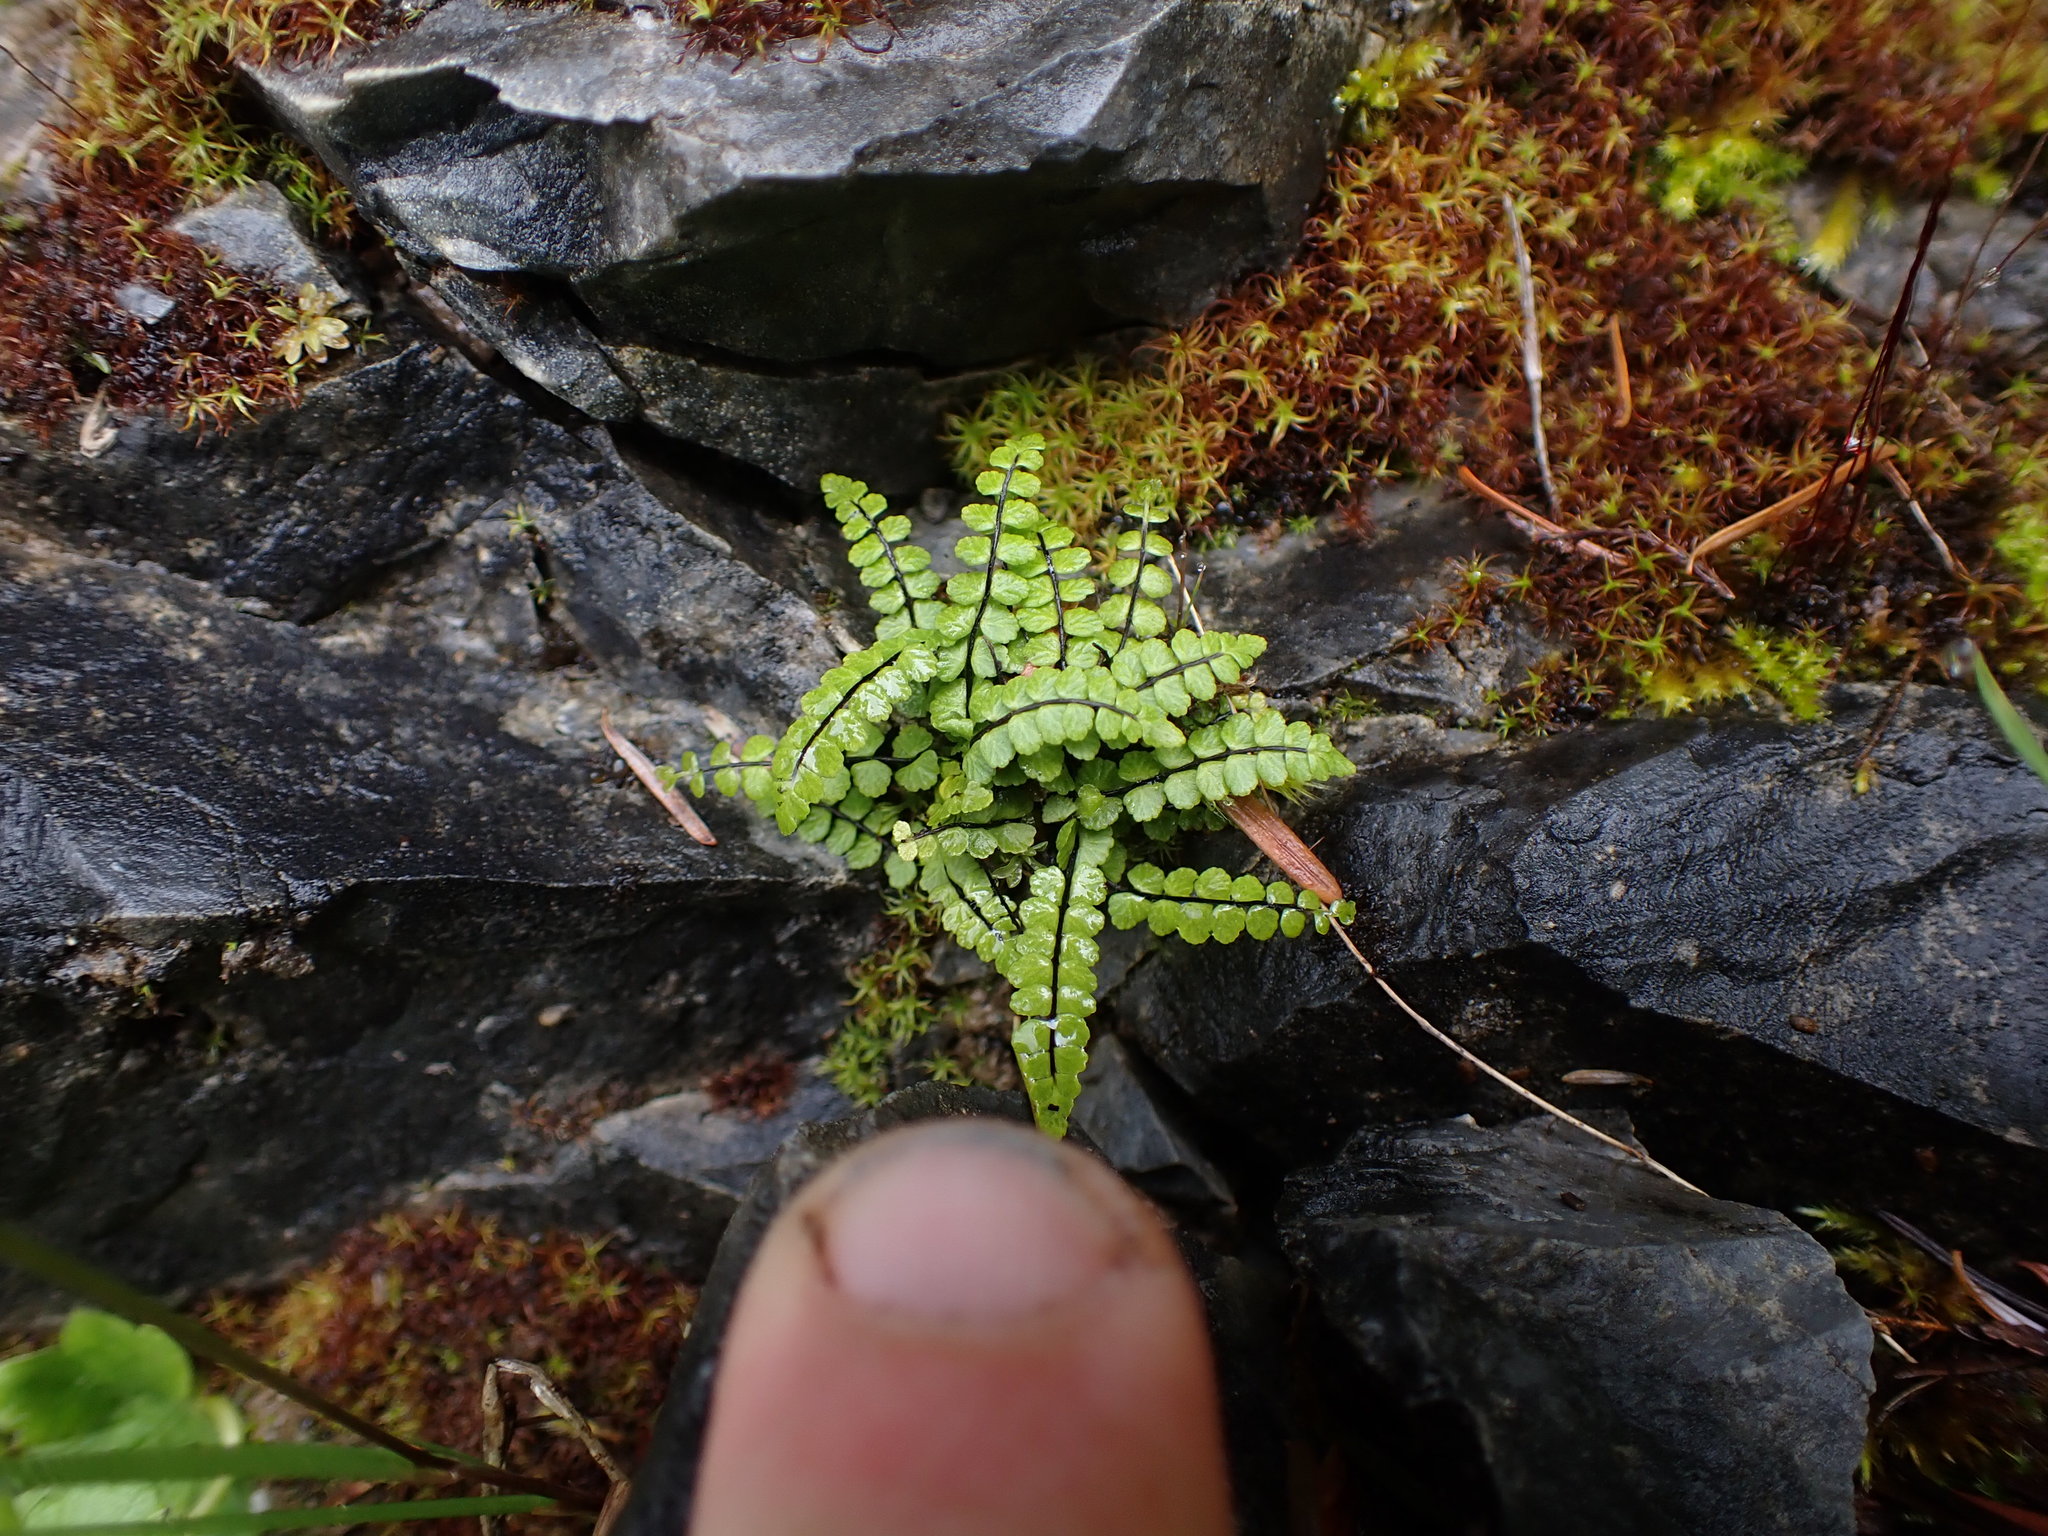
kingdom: Plantae
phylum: Tracheophyta
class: Polypodiopsida
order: Polypodiales
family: Aspleniaceae
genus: Asplenium
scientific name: Asplenium trichomanes
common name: Maidenhair spleenwort
